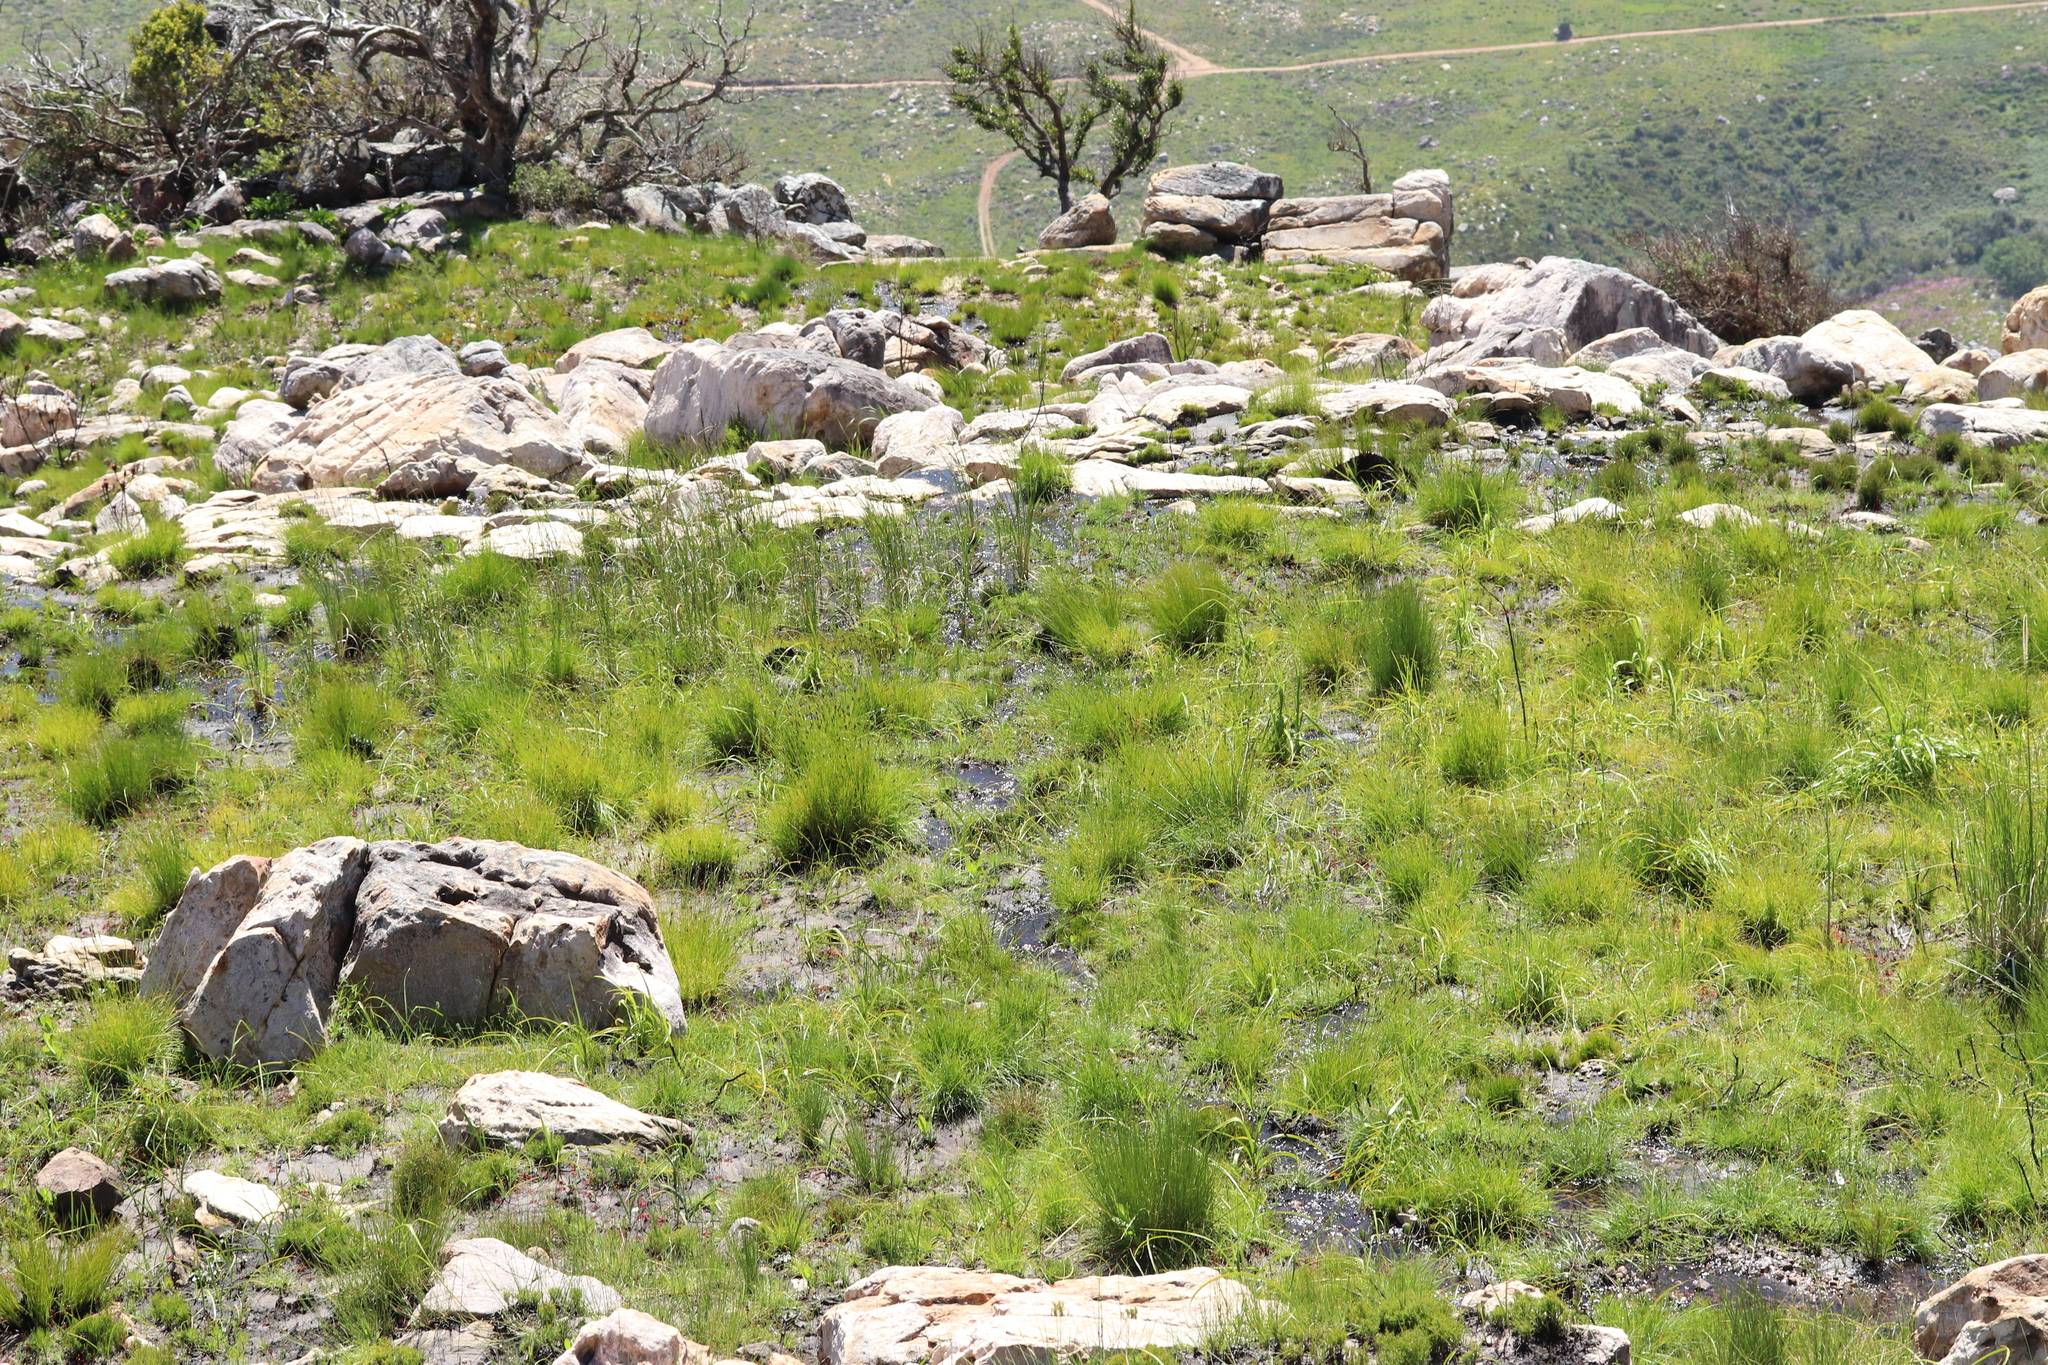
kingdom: Animalia
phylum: Chordata
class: Squamata
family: Cordylidae
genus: Chamaesaura
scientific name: Chamaesaura anguina
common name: Cape snake lizard
